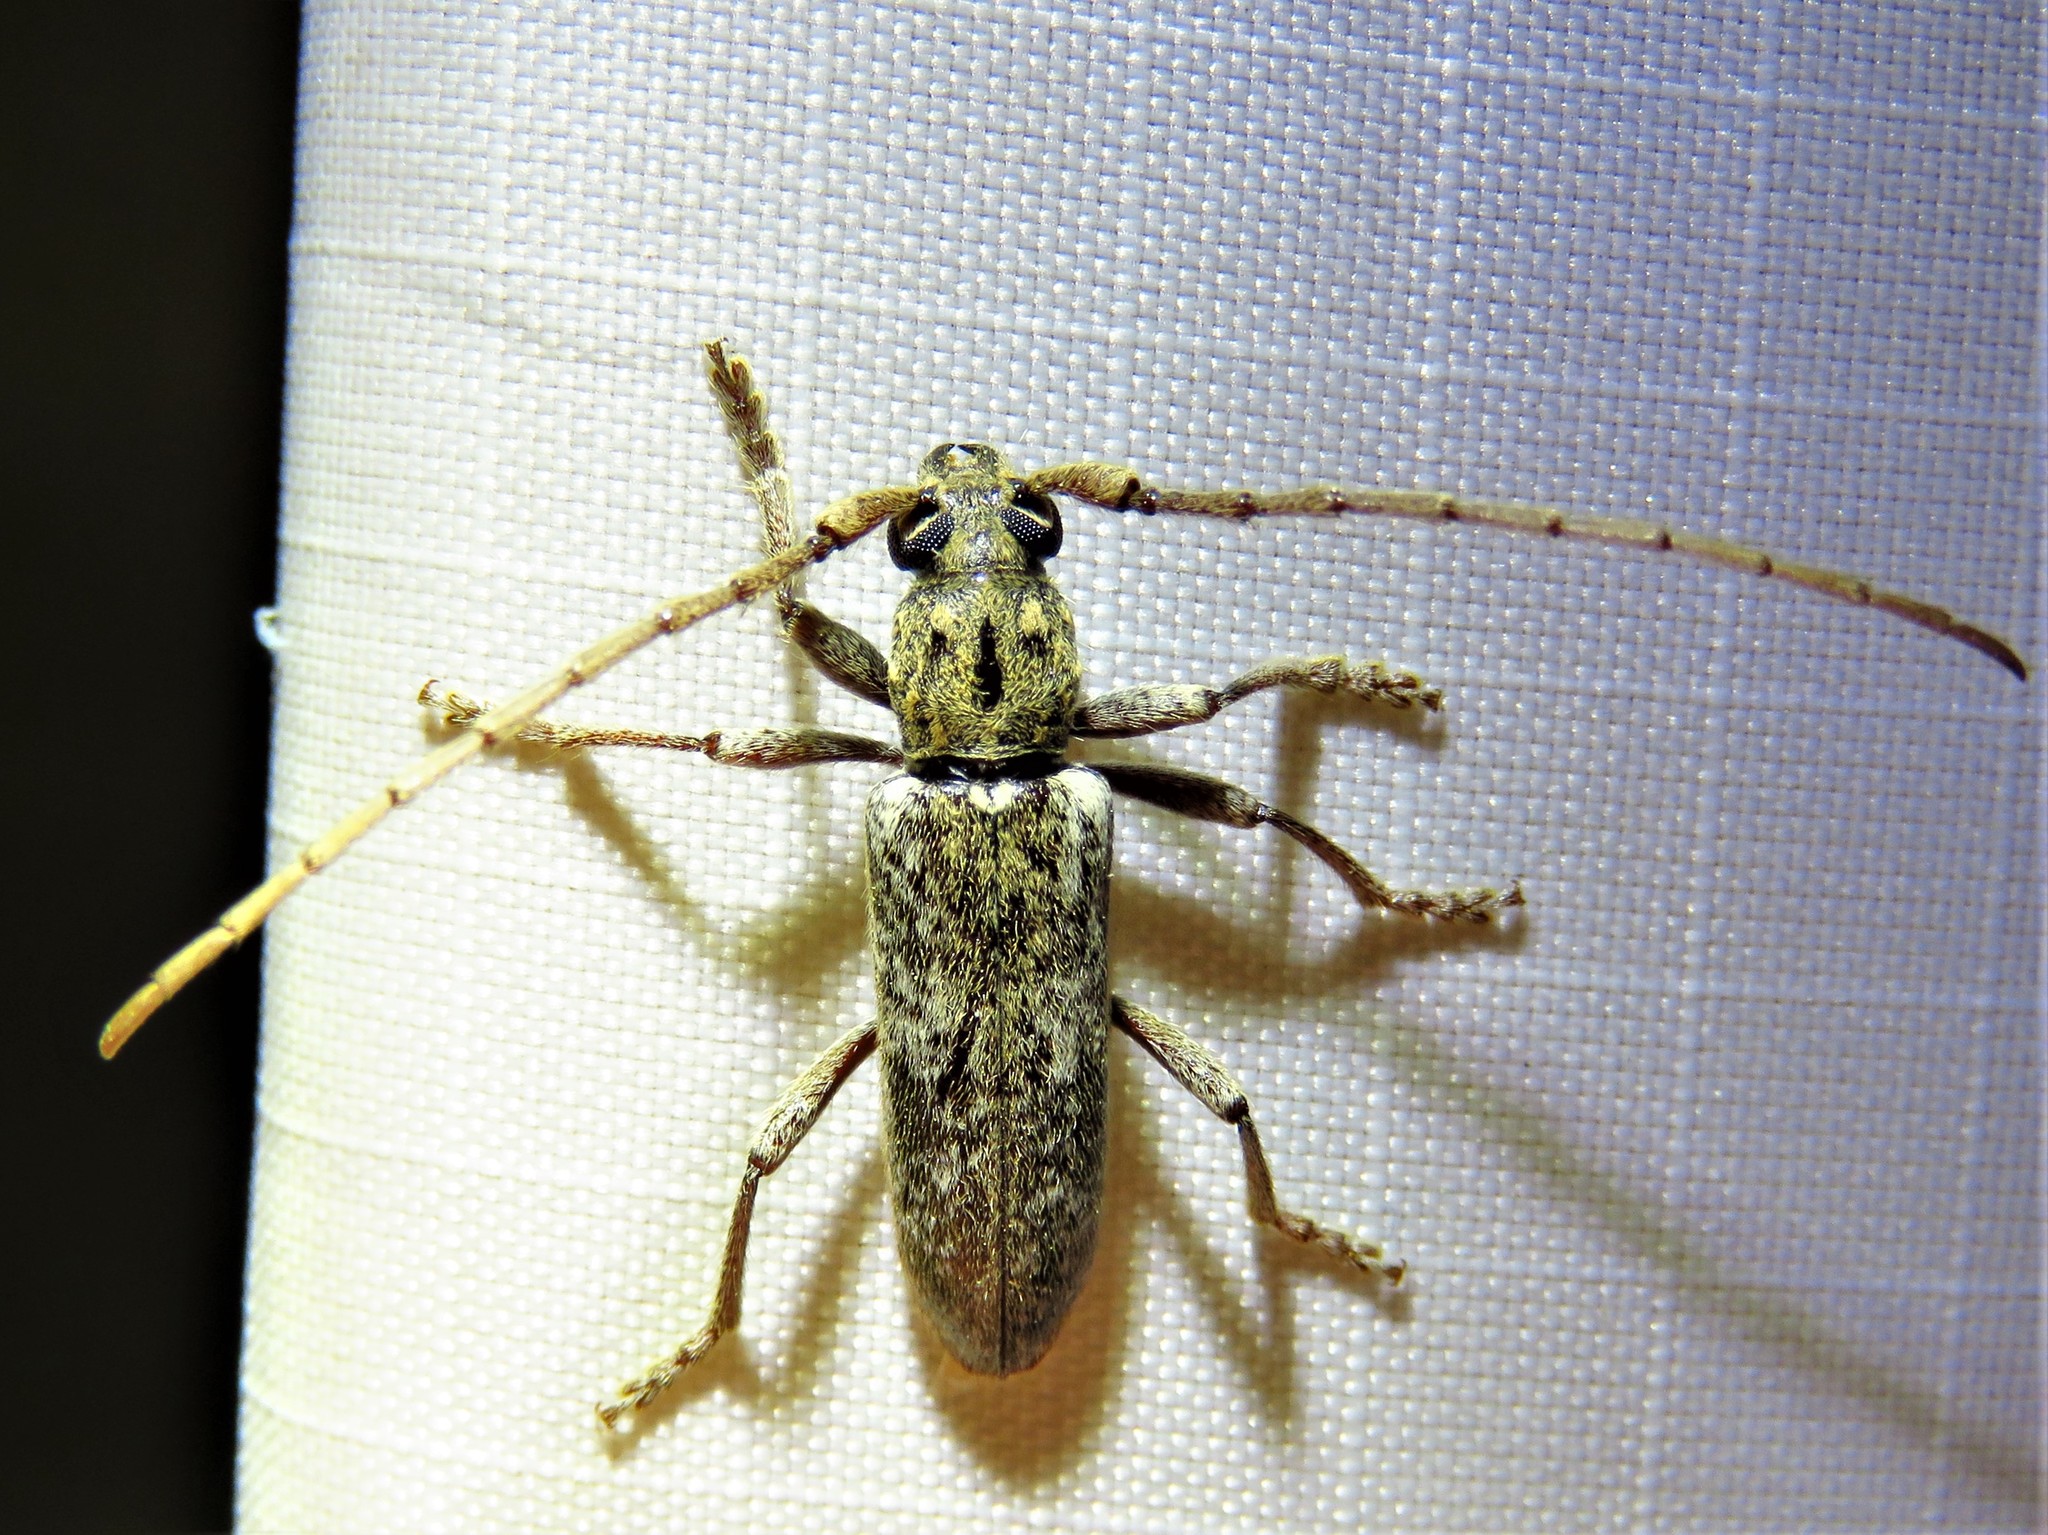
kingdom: Animalia
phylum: Arthropoda
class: Insecta
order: Coleoptera
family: Cerambycidae
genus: Anelaphus
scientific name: Anelaphus debilis
